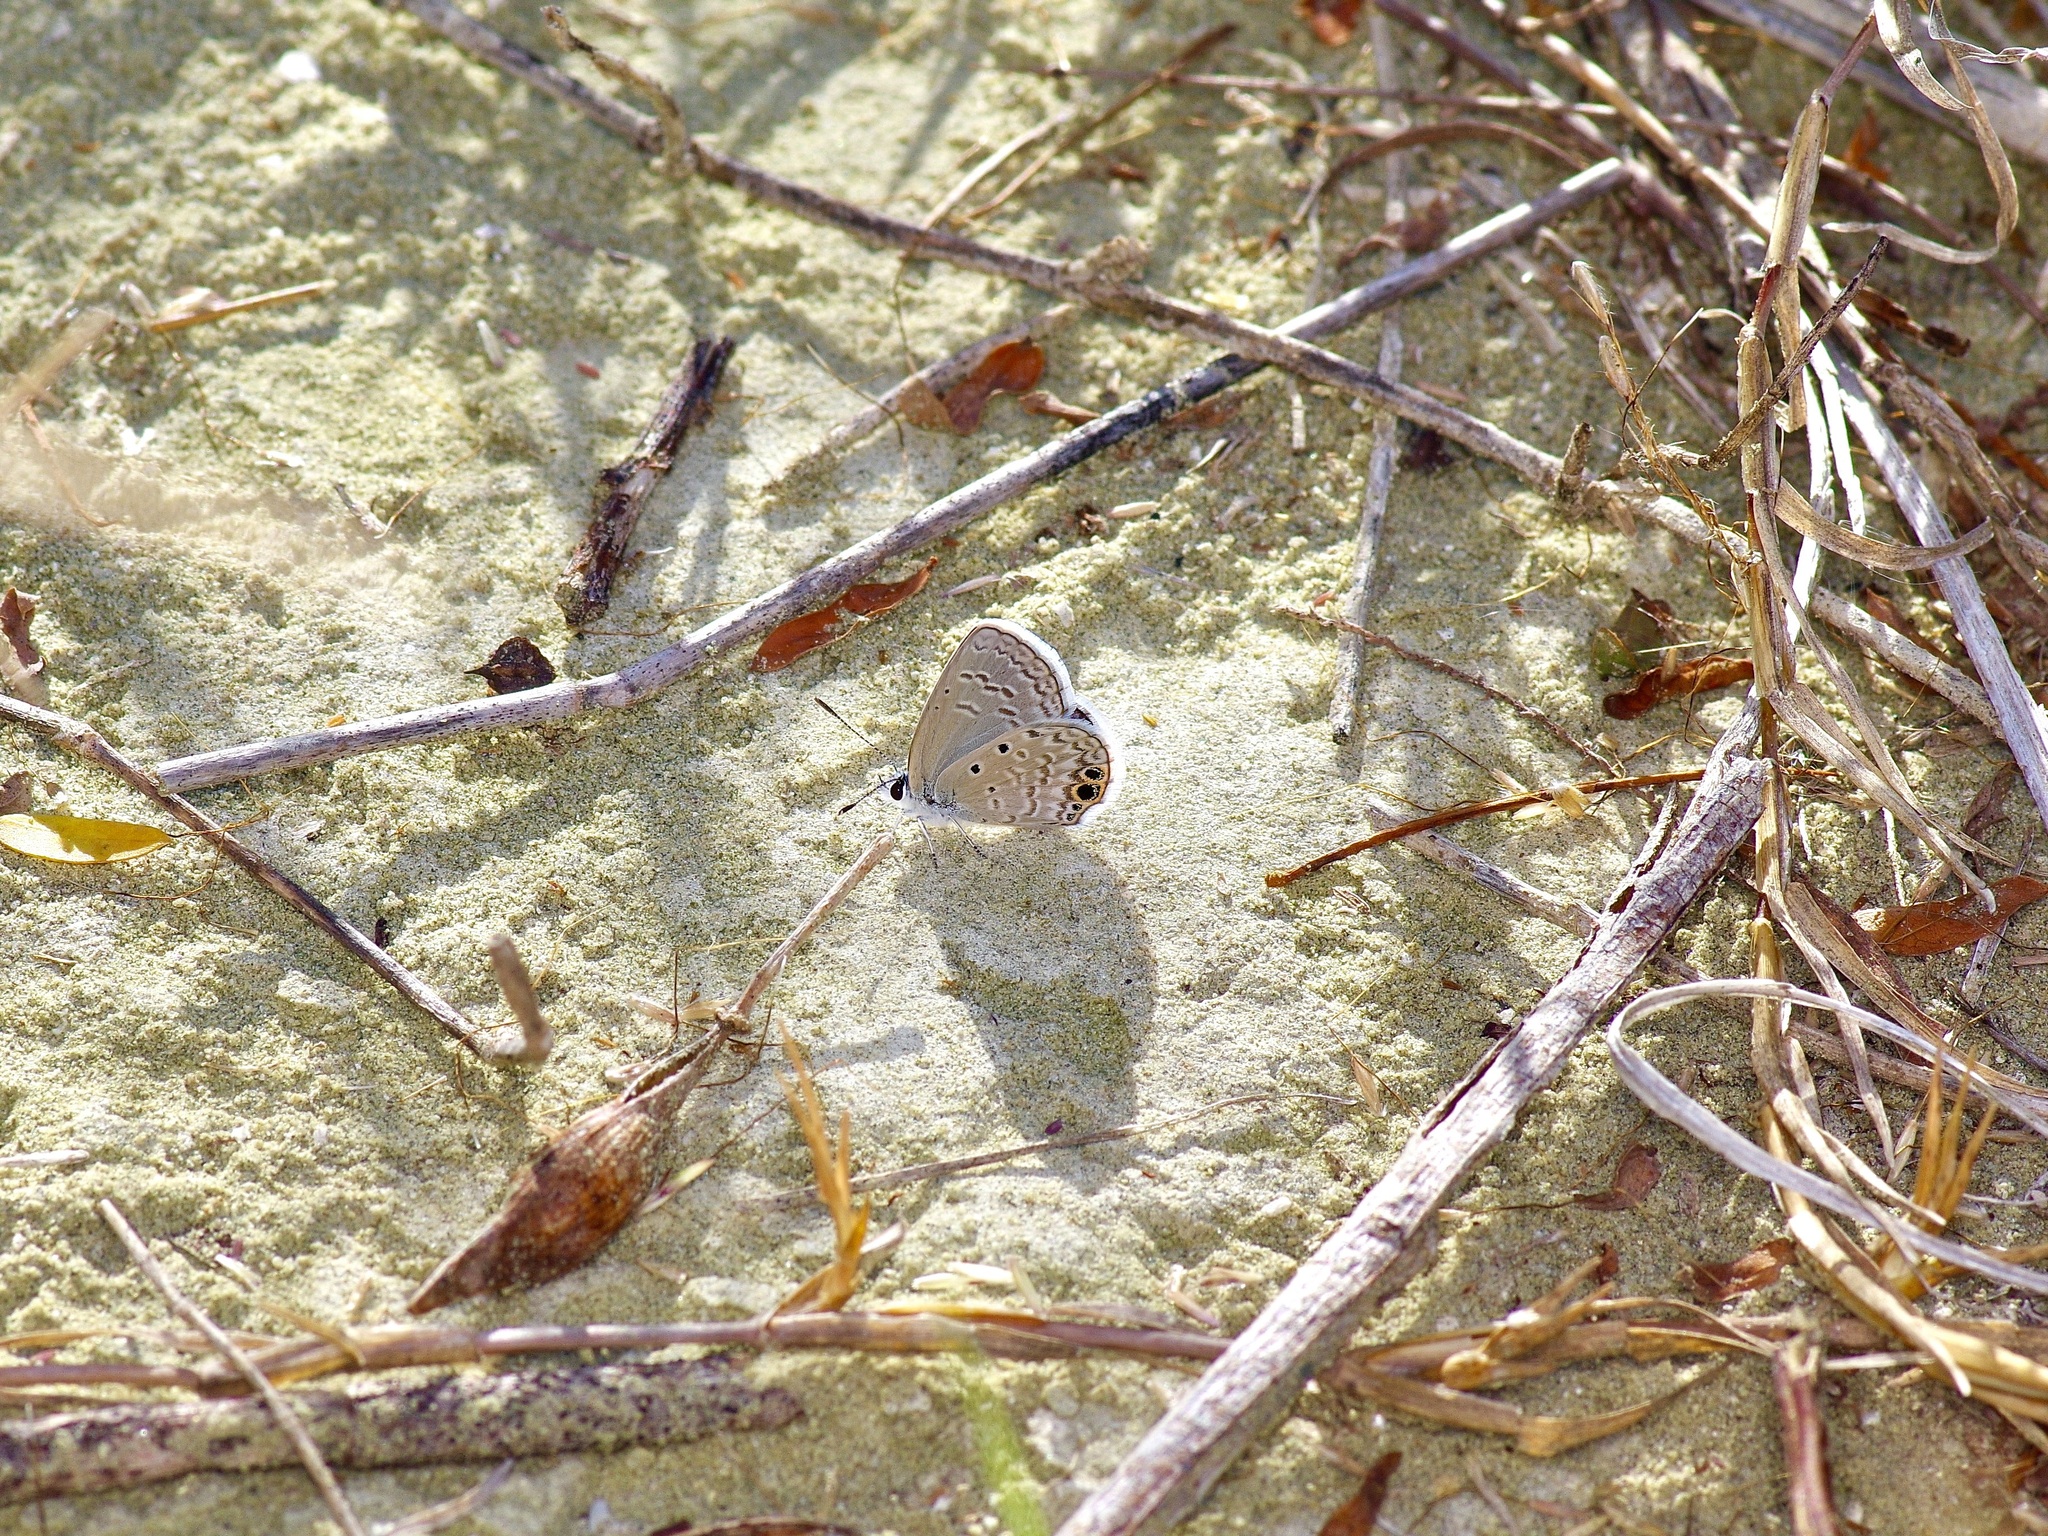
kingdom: Animalia
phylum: Arthropoda
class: Insecta
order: Lepidoptera
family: Lycaenidae
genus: Hemiargus
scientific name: Hemiargus ceraunus
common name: Ceraunus blue
